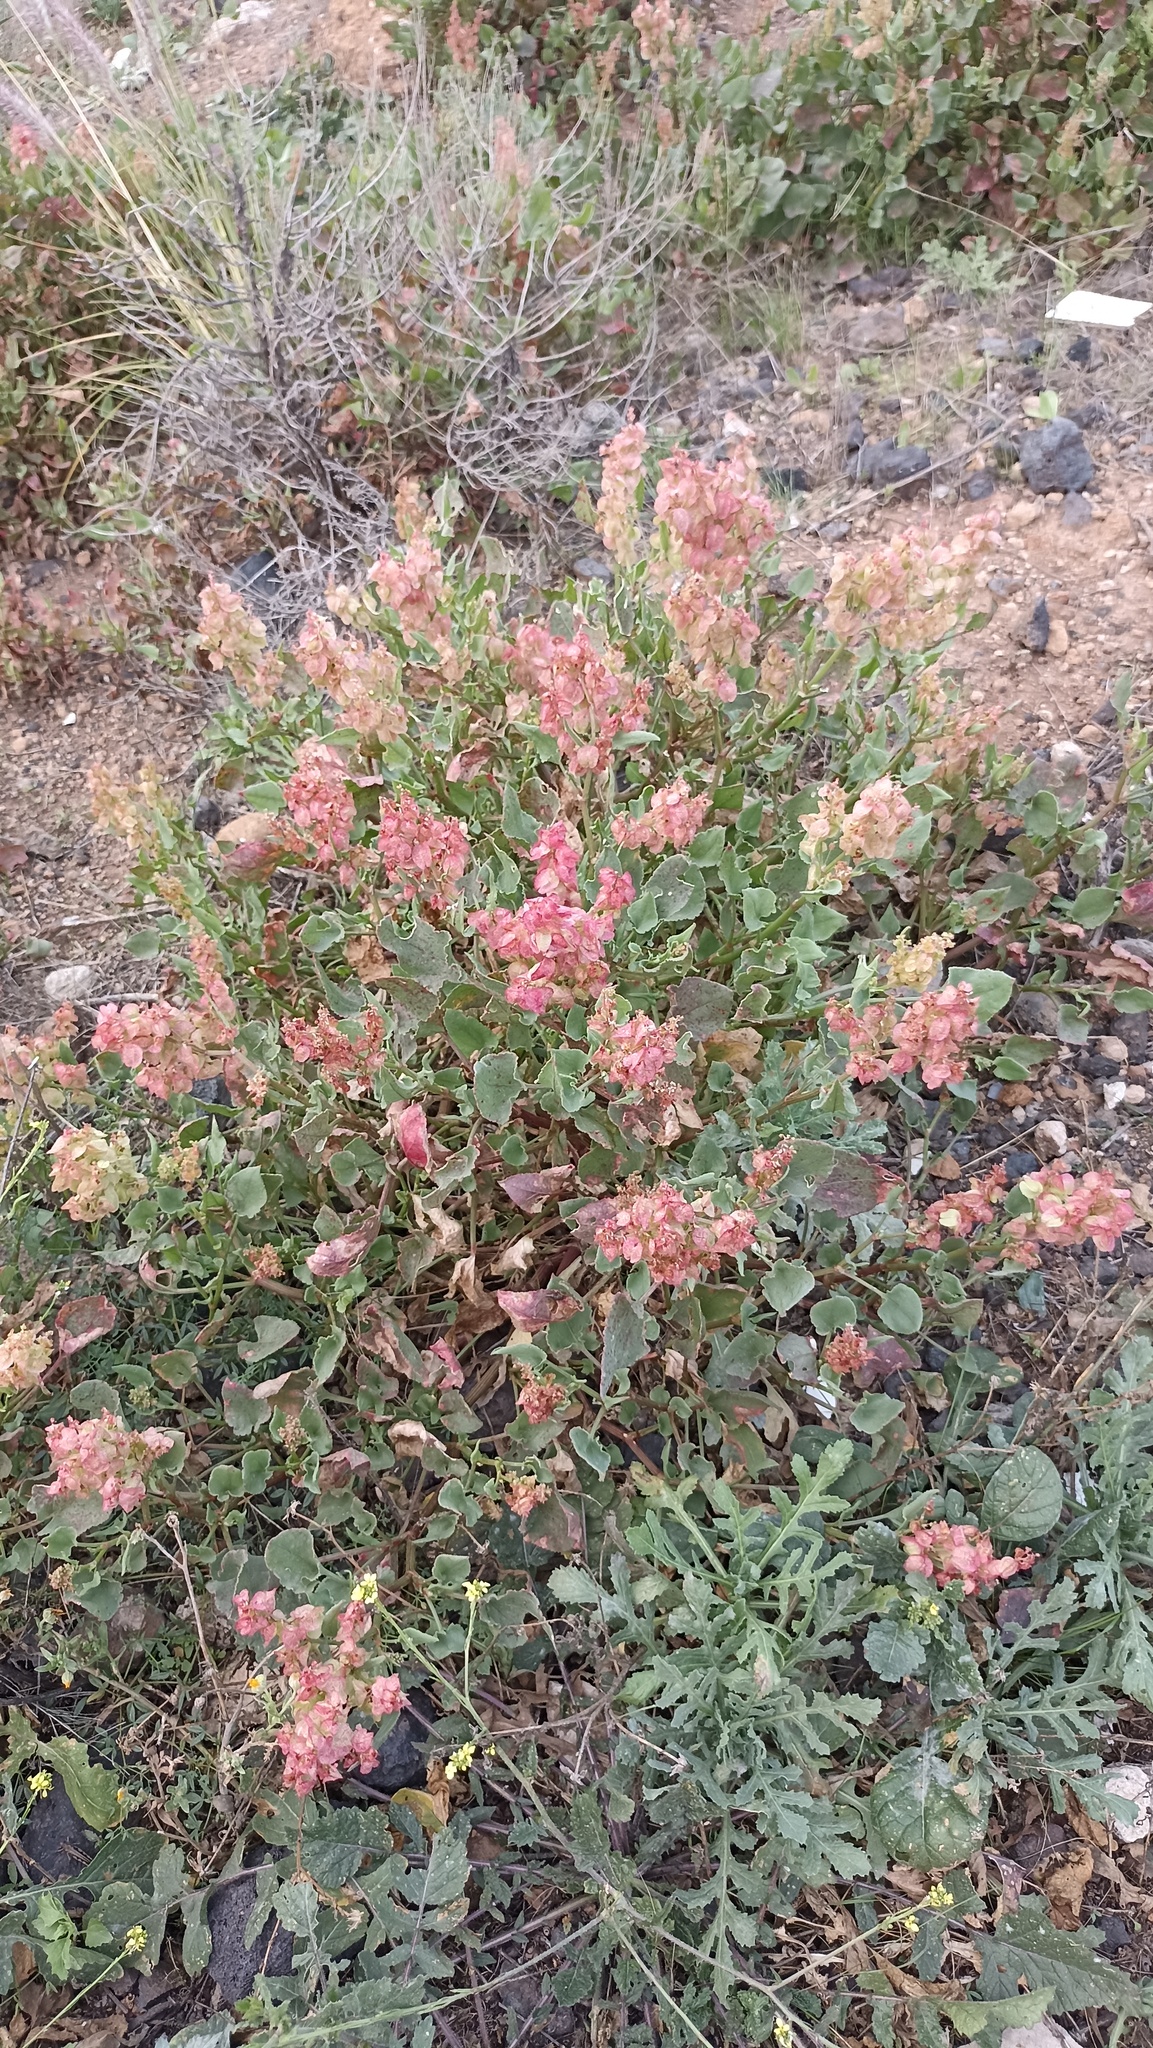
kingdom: Plantae
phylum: Tracheophyta
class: Magnoliopsida
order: Caryophyllales
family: Polygonaceae
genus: Rumex
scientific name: Rumex vesicarius
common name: Bladder dock
